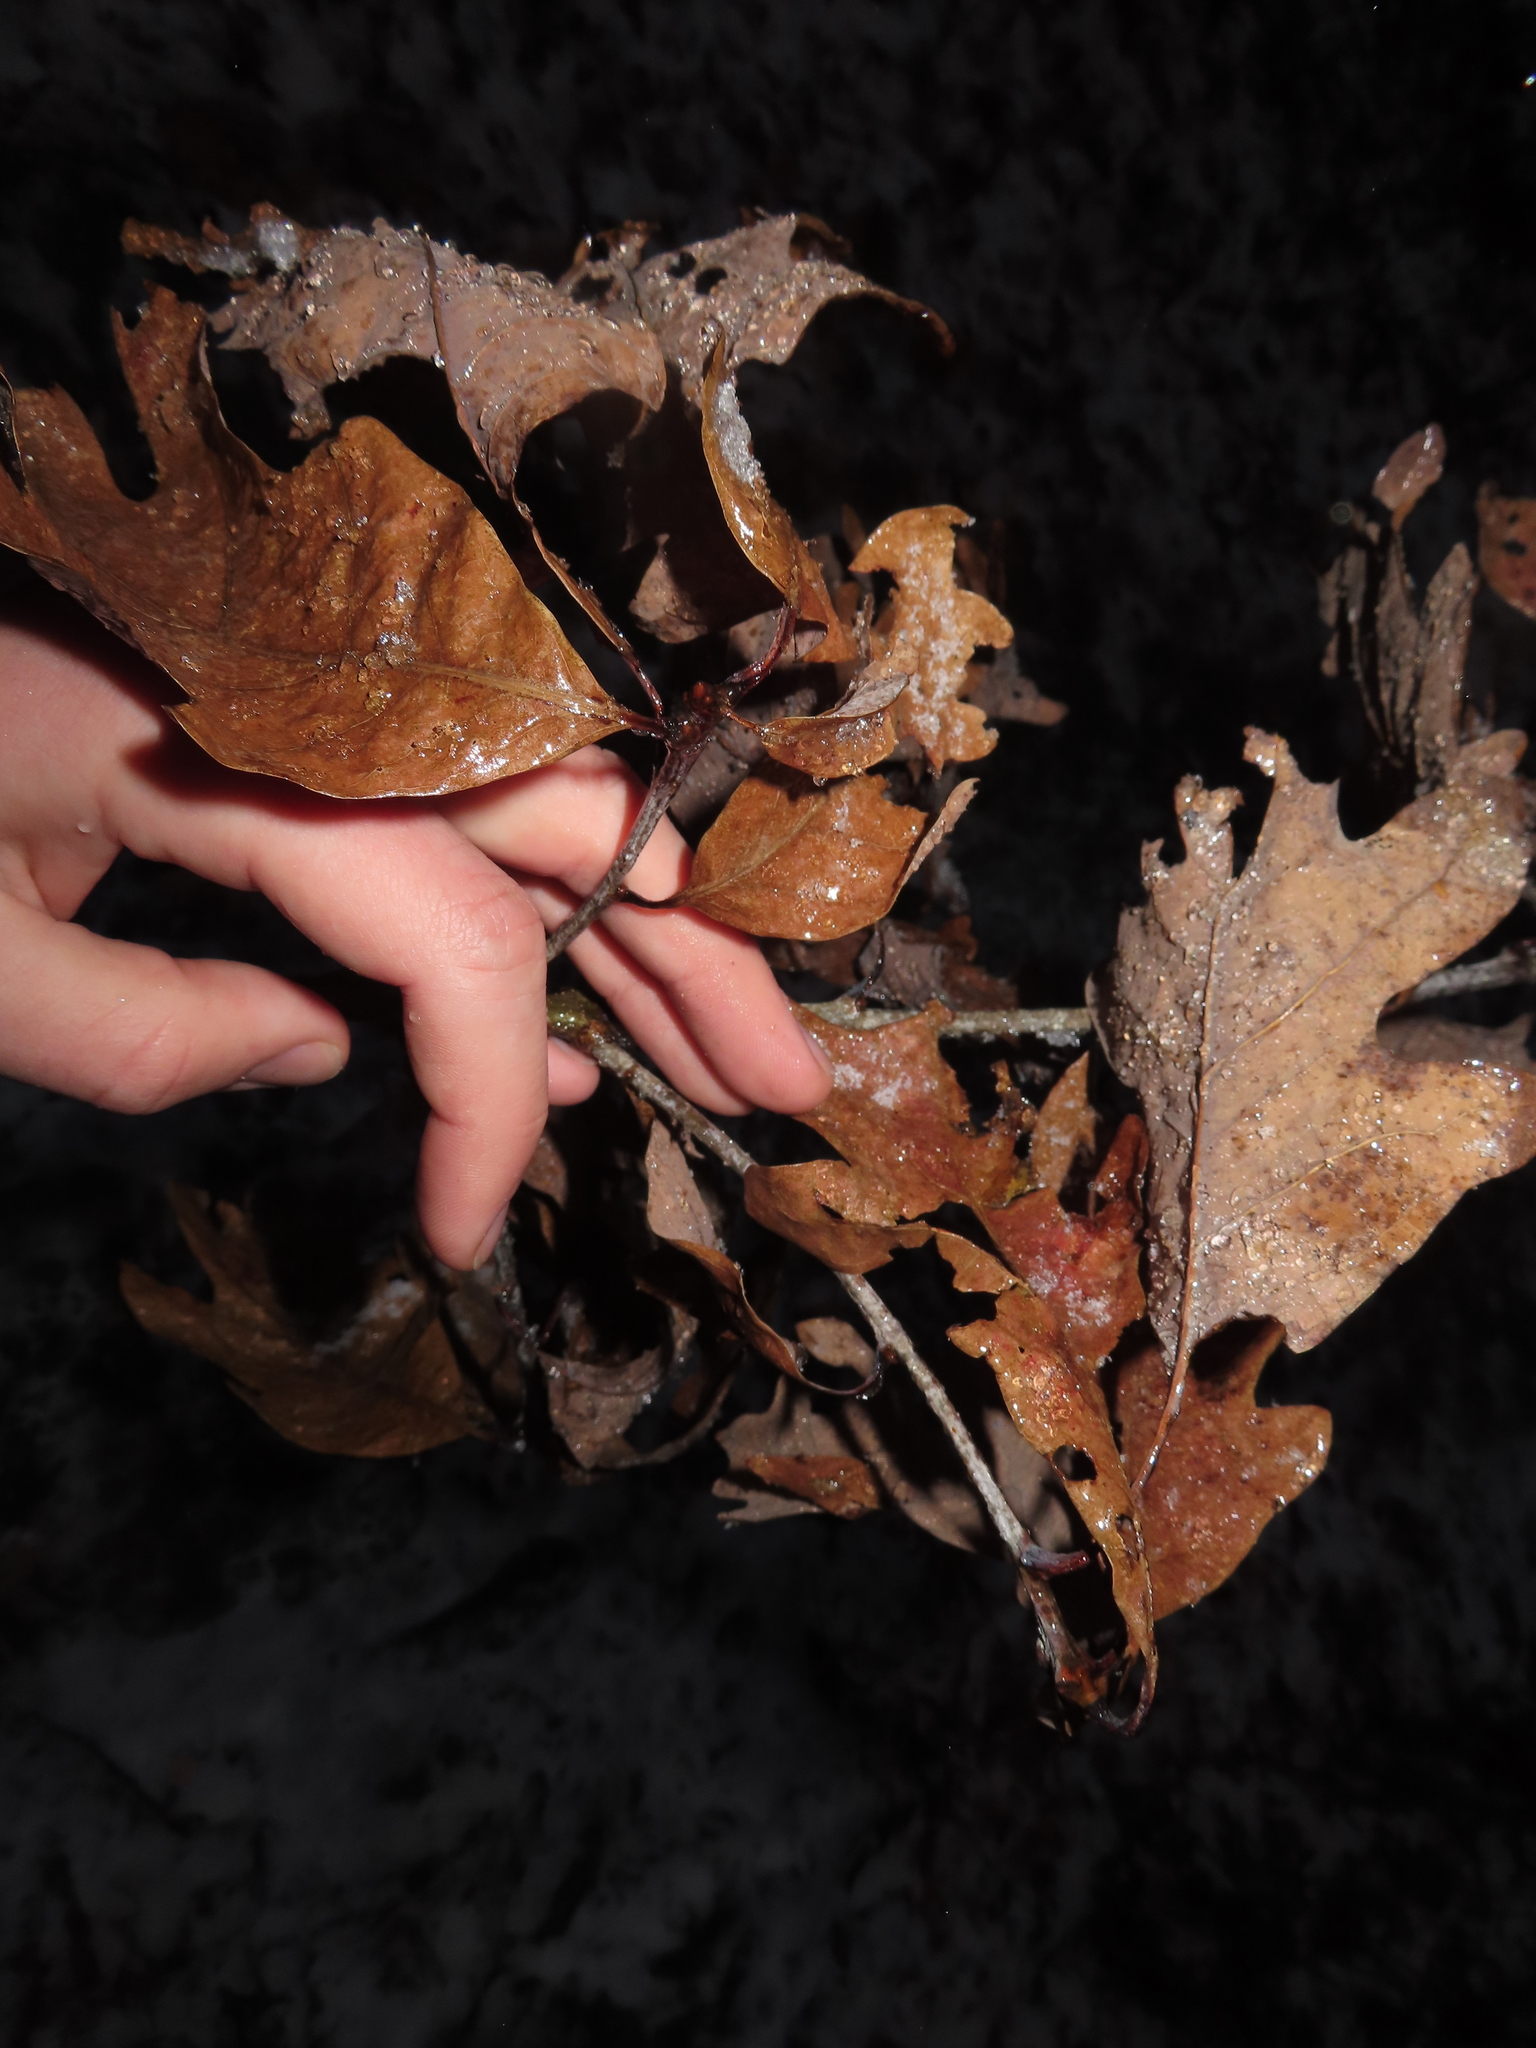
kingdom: Animalia
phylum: Arthropoda
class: Insecta
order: Hymenoptera
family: Cynipidae
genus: Disholcaspis
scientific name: Disholcaspis quercusglobulus
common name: Round bullet gall wasp
